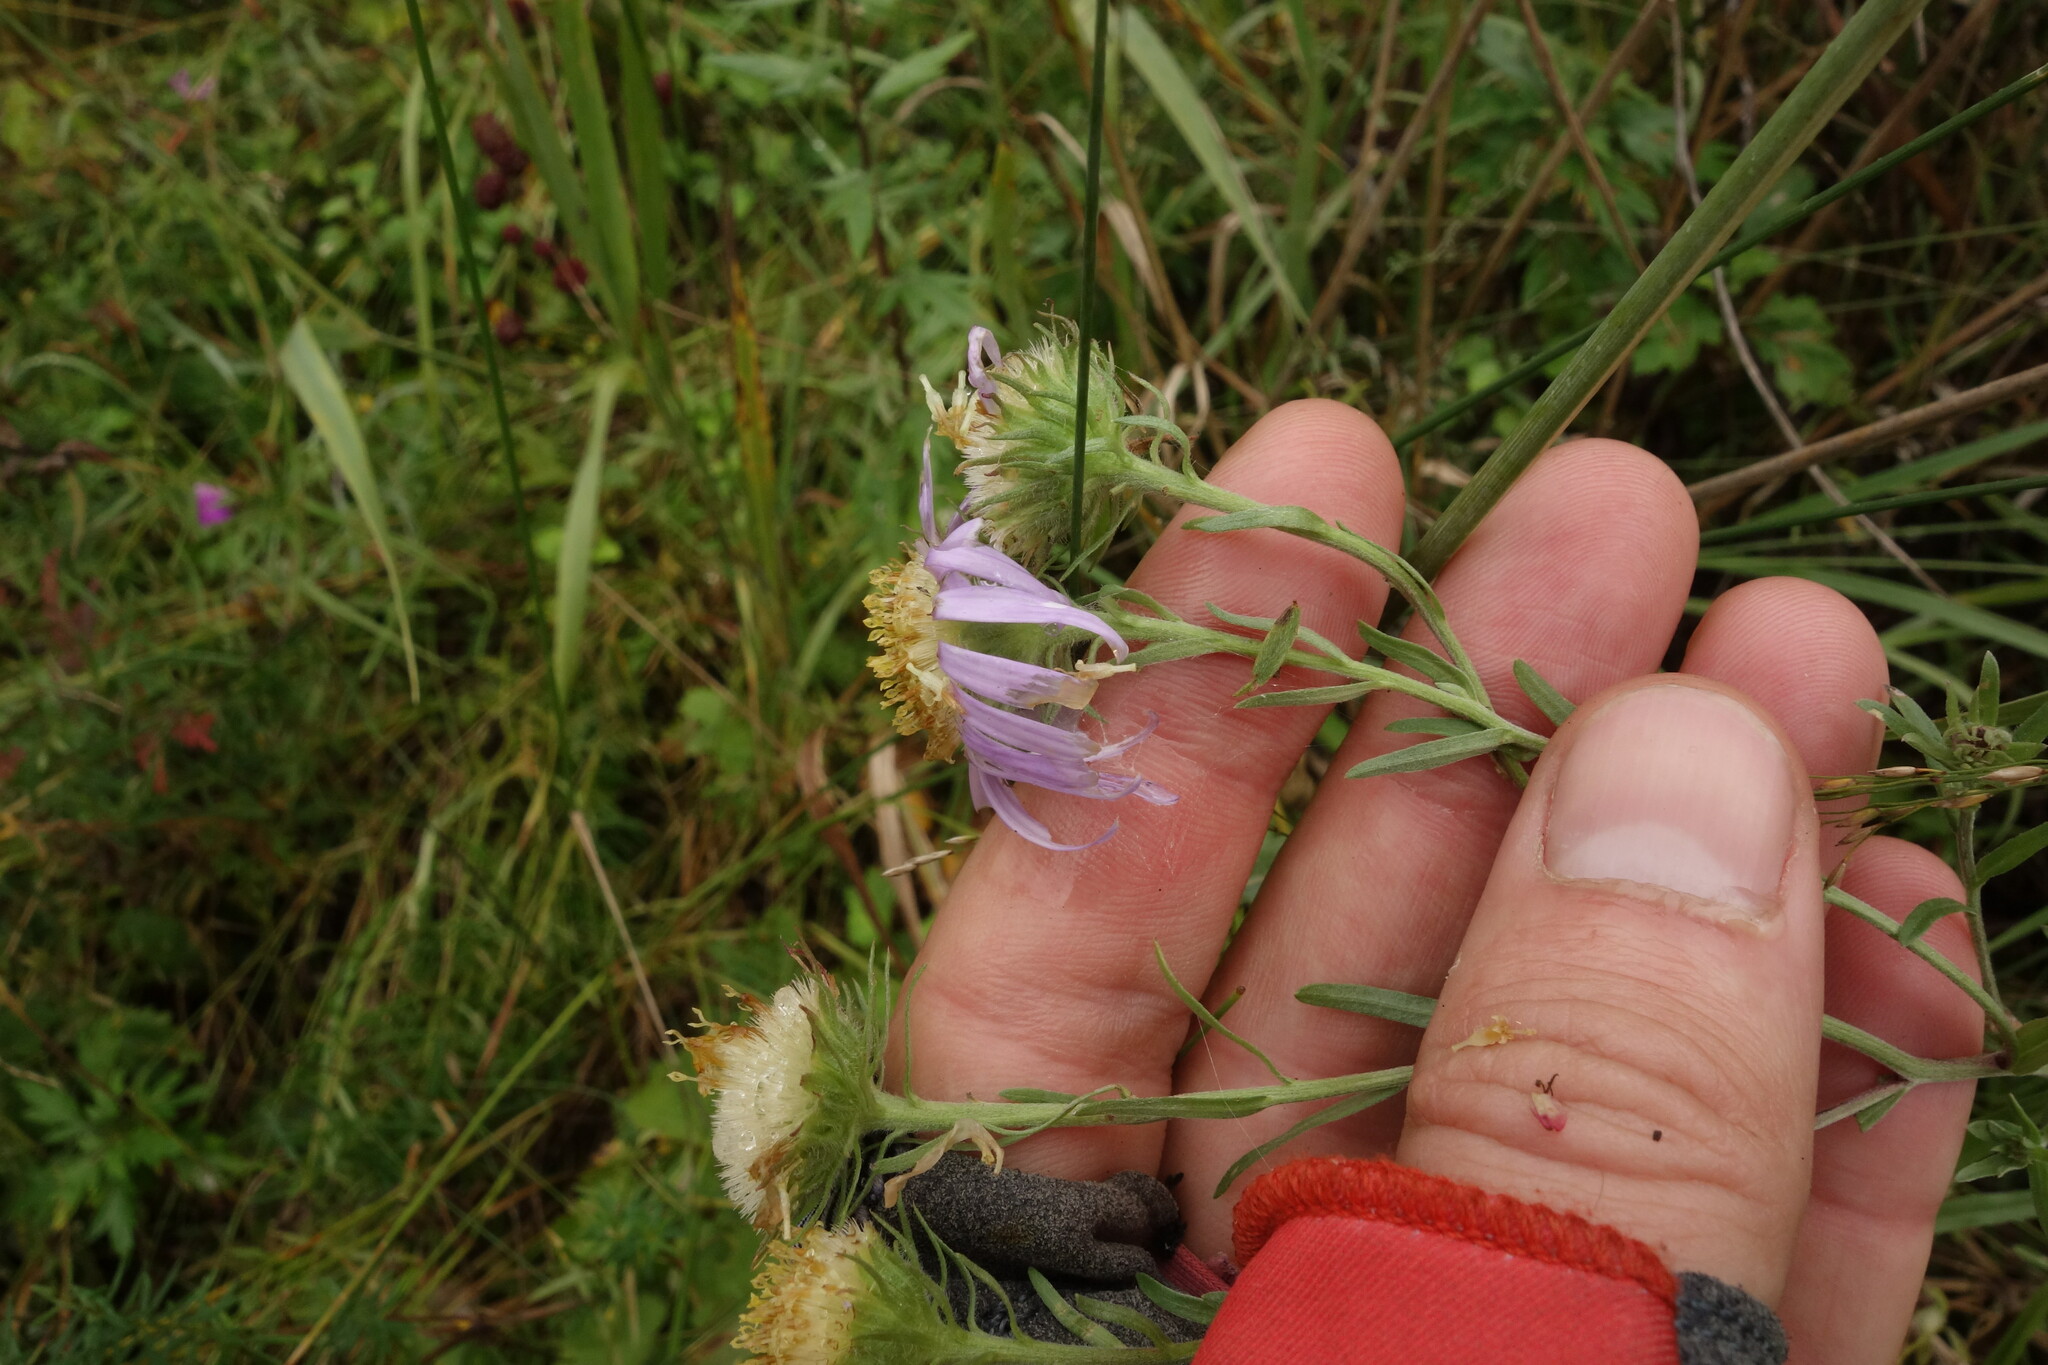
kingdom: Plantae
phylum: Tracheophyta
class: Magnoliopsida
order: Asterales
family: Asteraceae
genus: Aster
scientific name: Aster biennis
